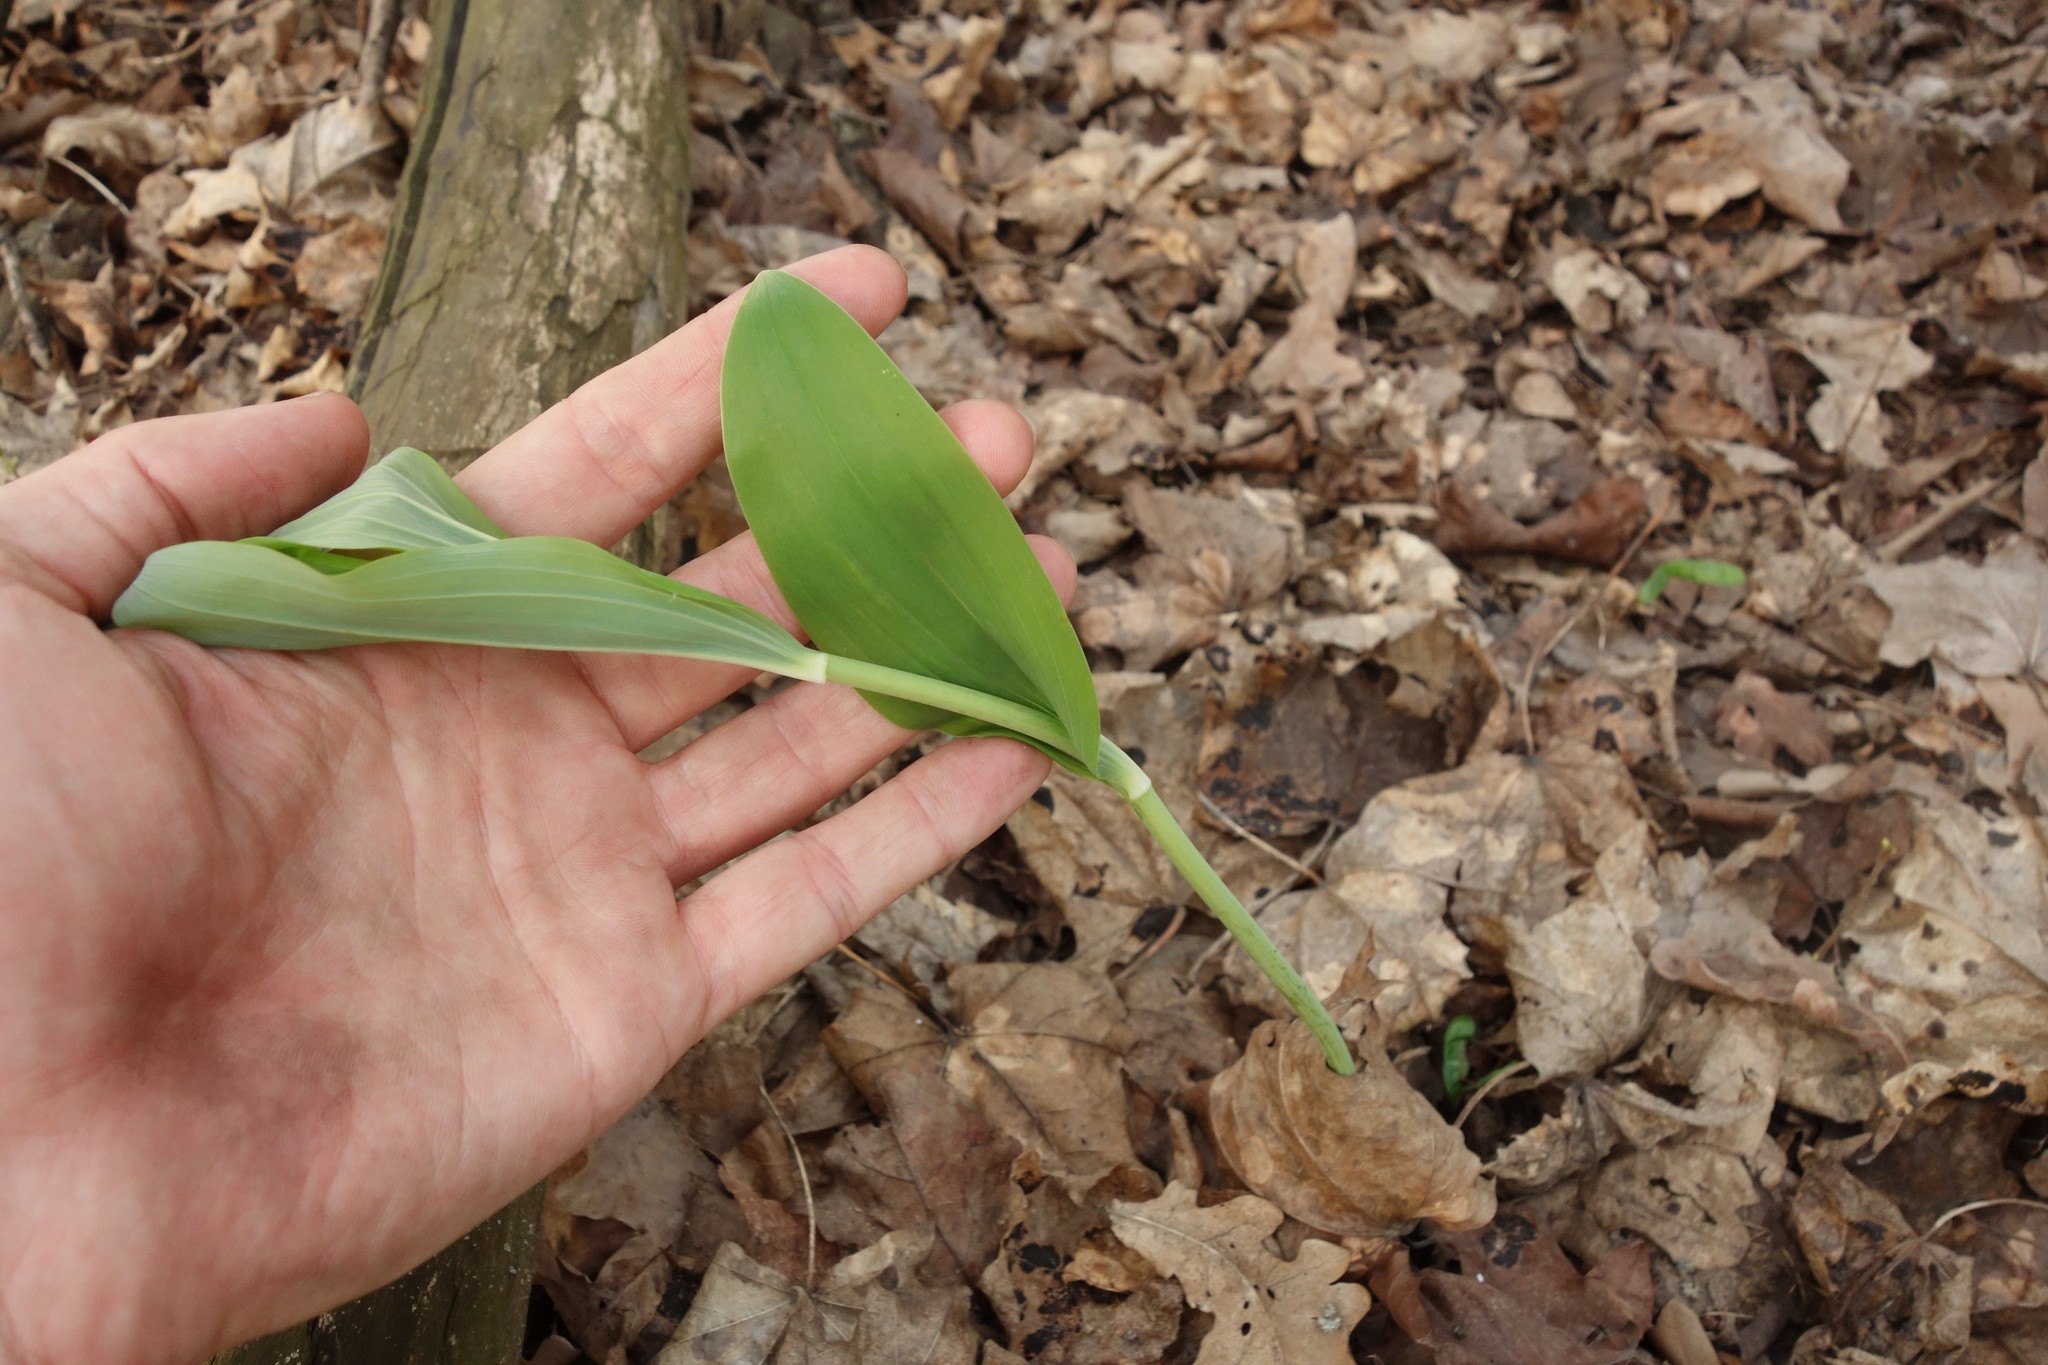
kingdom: Plantae
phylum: Tracheophyta
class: Liliopsida
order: Asparagales
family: Asparagaceae
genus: Polygonatum
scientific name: Polygonatum multiflorum
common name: Solomon's-seal
